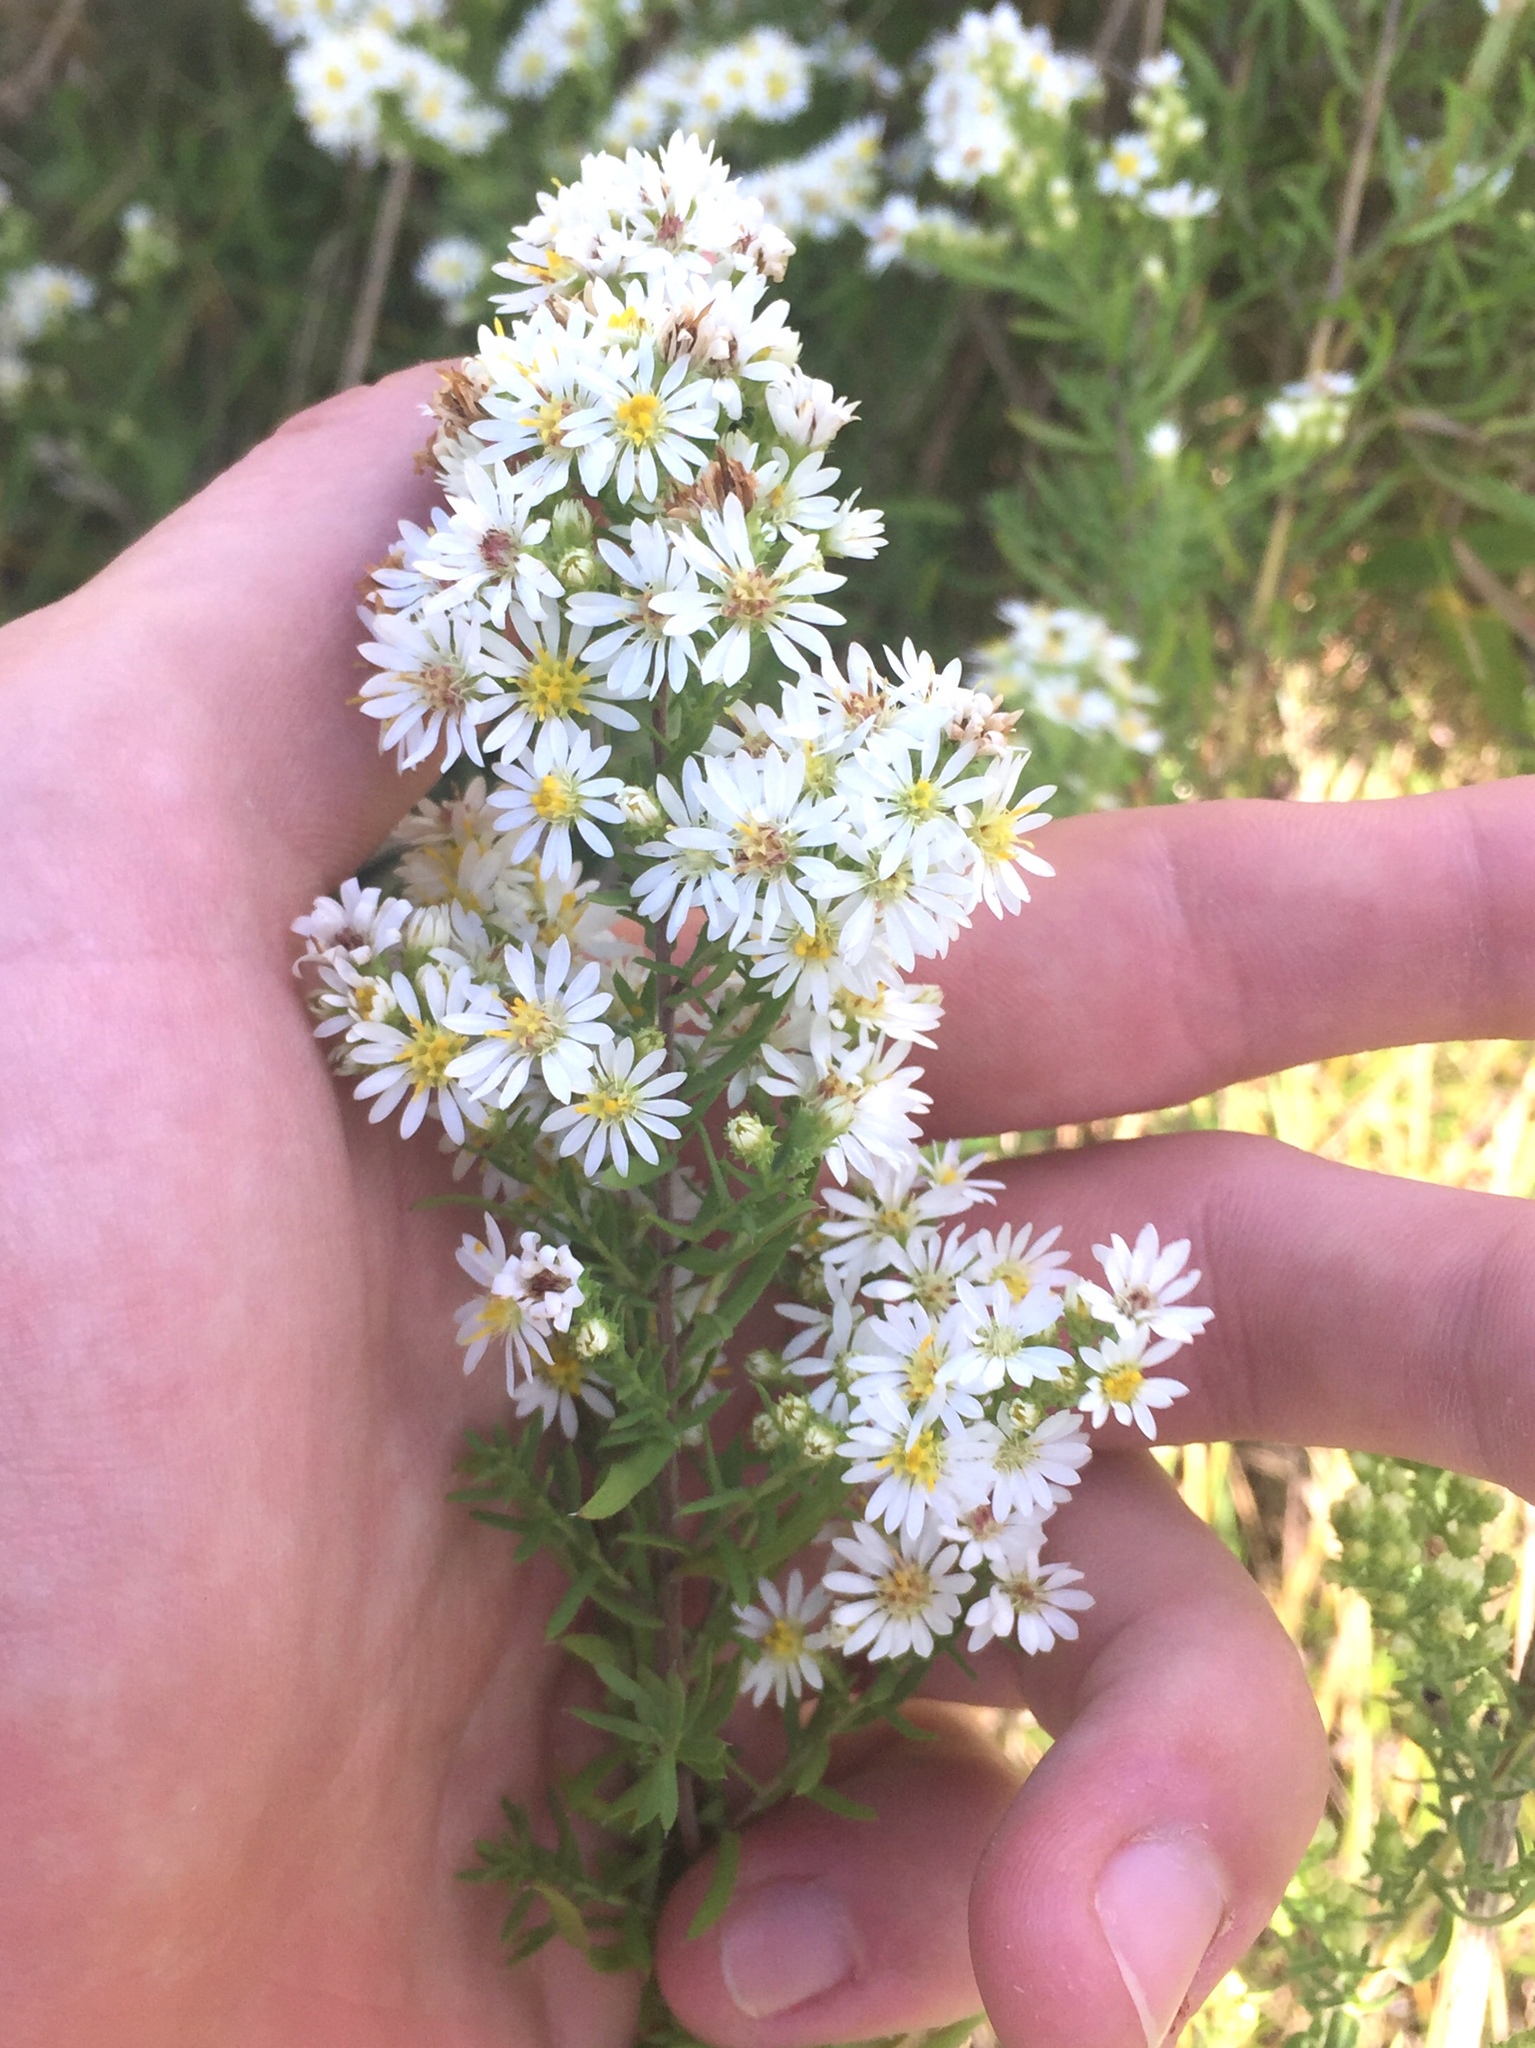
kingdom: Plantae
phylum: Tracheophyta
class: Magnoliopsida
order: Asterales
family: Asteraceae
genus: Symphyotrichum
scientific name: Symphyotrichum ericoides
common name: Heath aster
